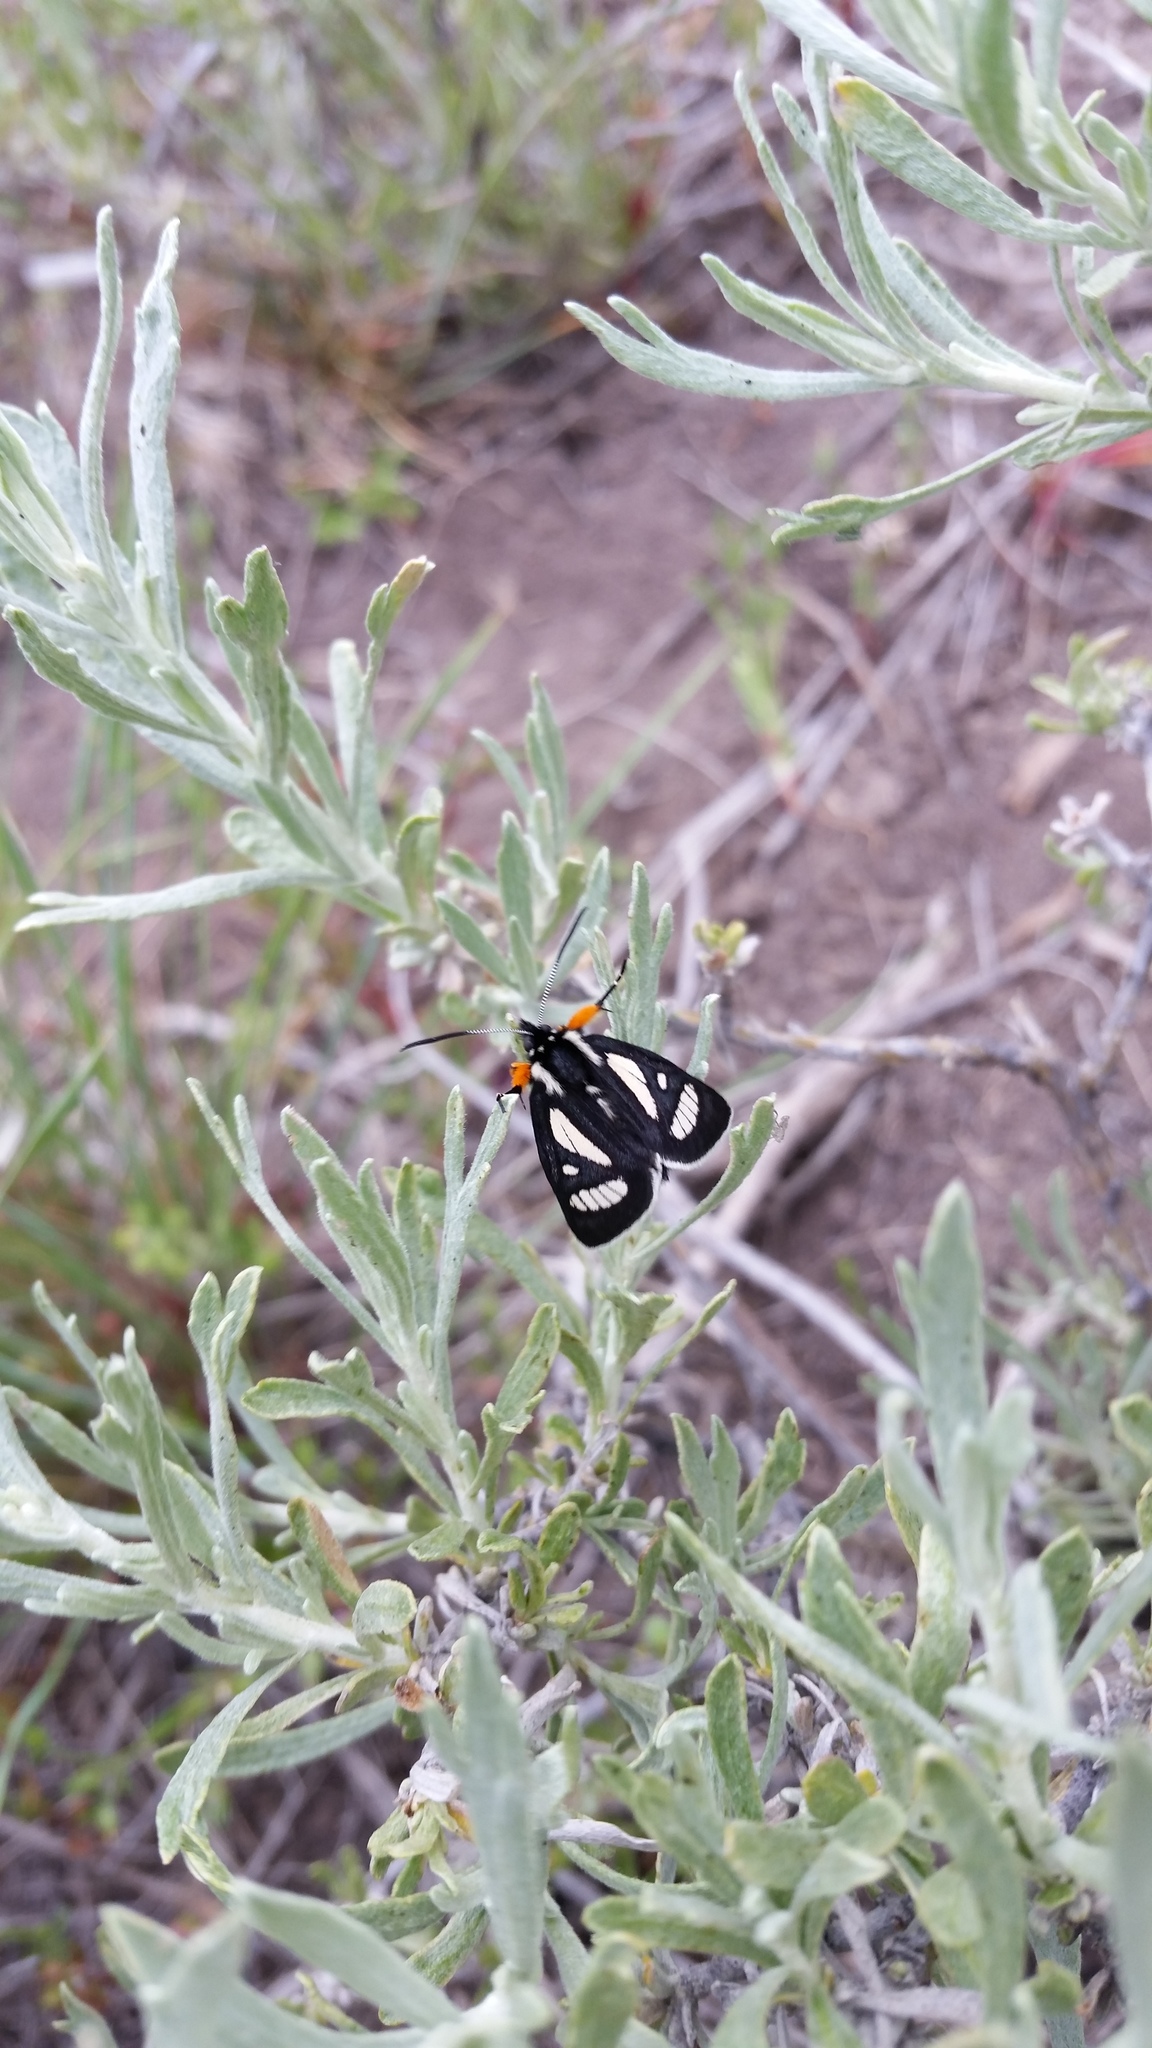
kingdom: Animalia
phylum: Arthropoda
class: Insecta
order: Lepidoptera
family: Noctuidae
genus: Alypia
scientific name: Alypia maccullochii
